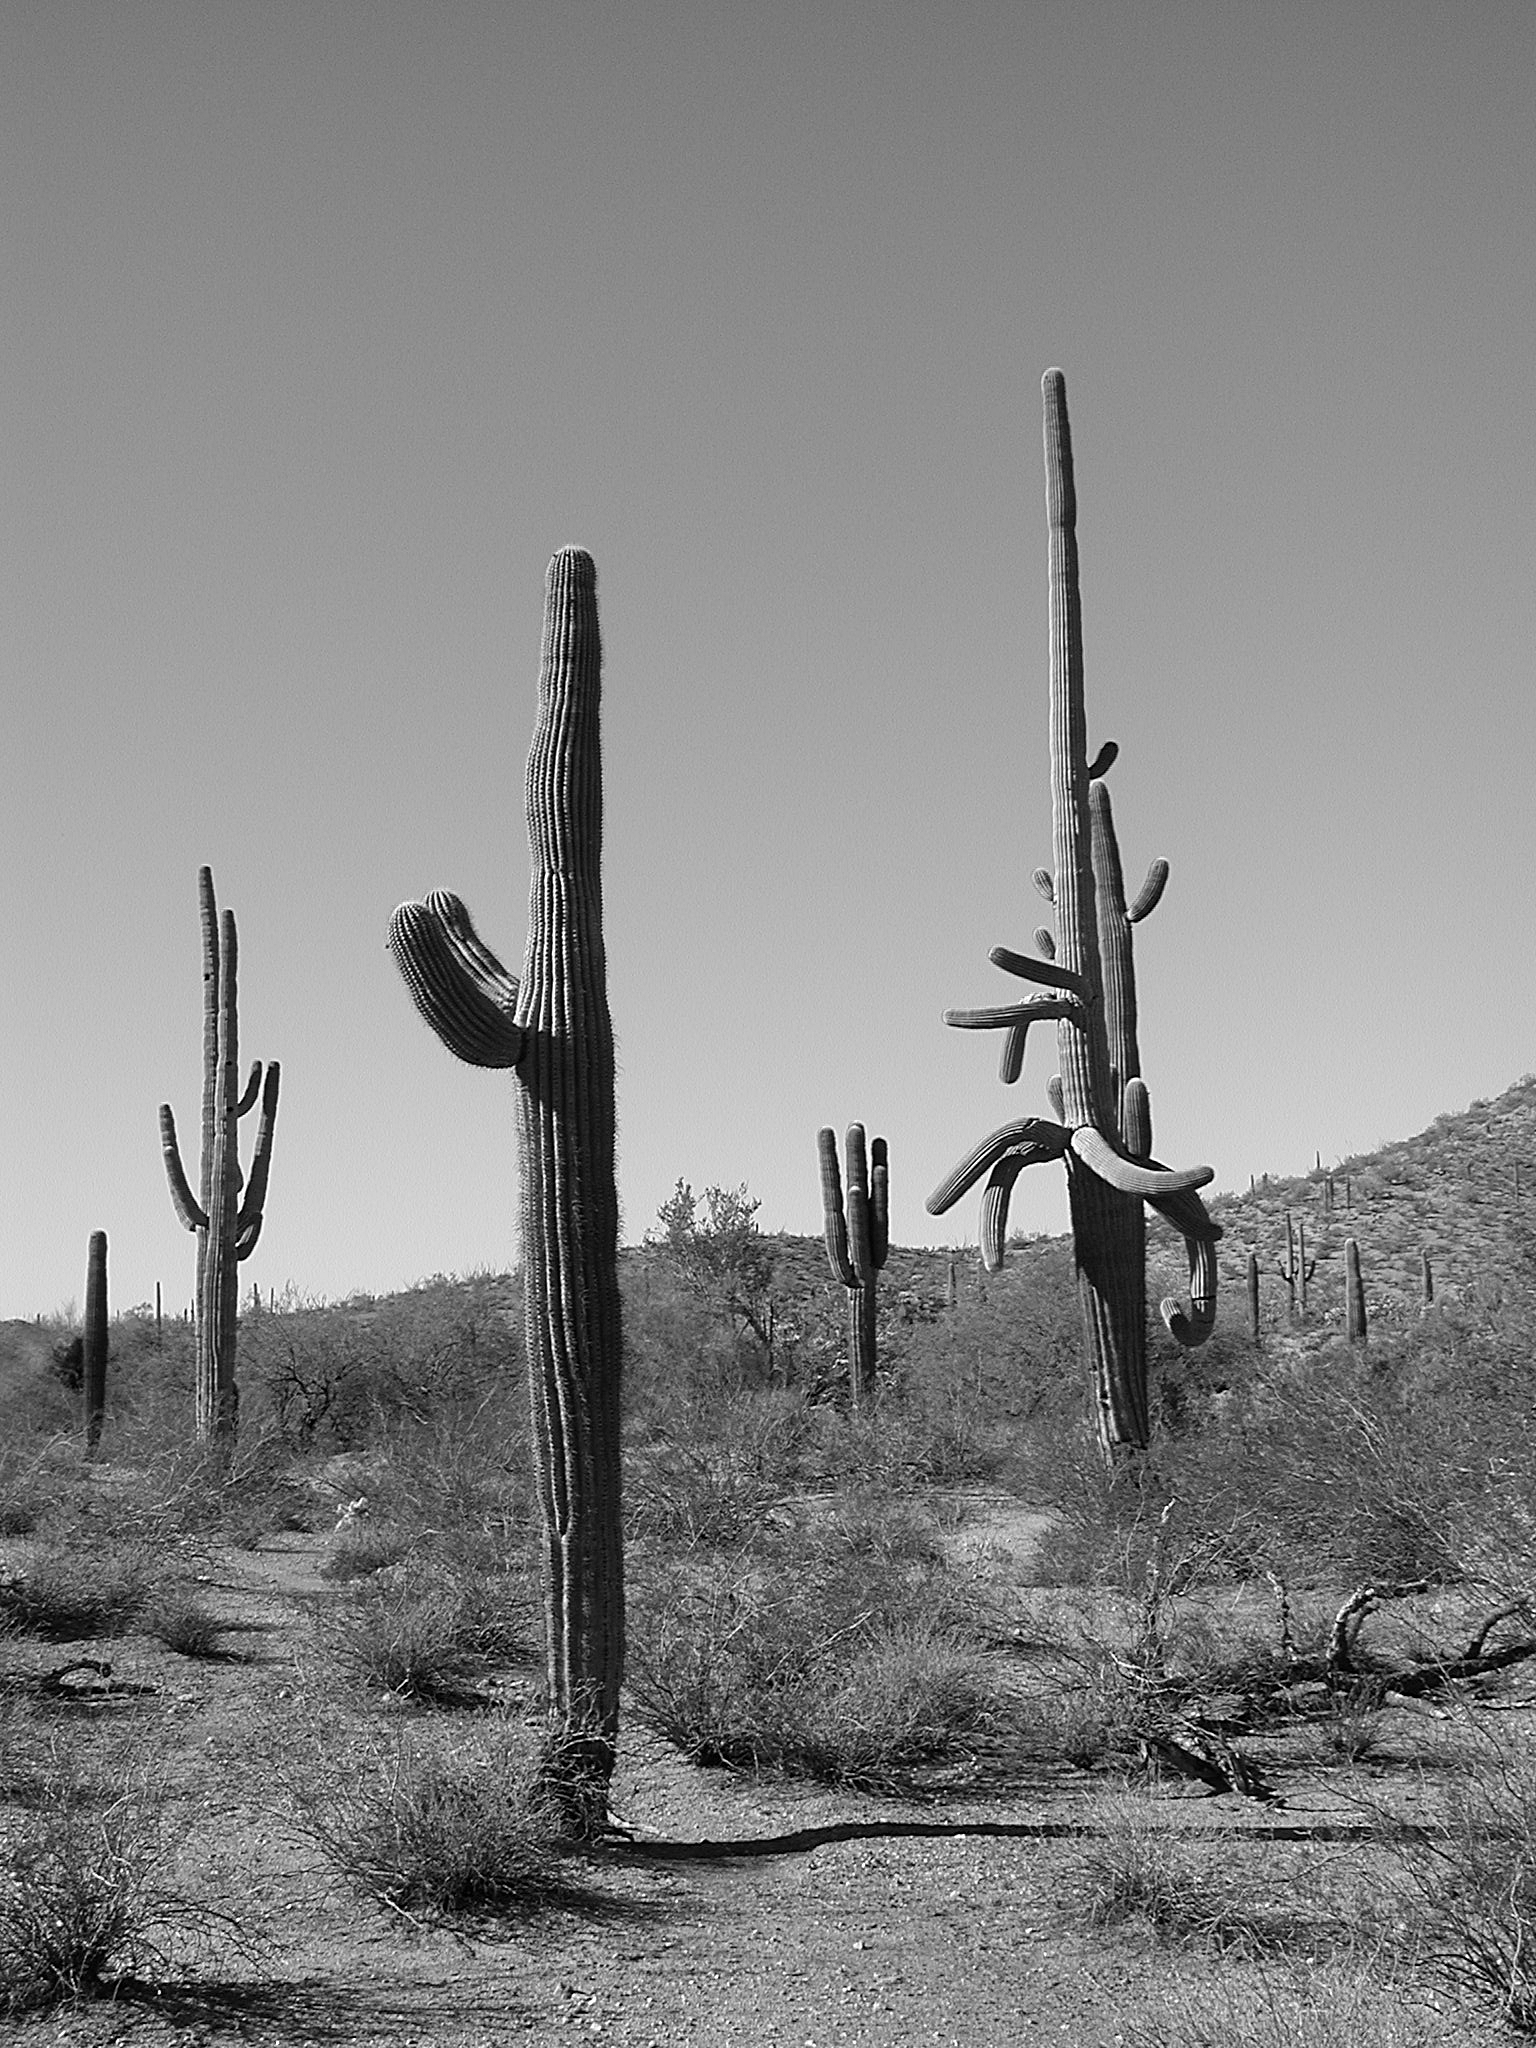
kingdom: Plantae
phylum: Tracheophyta
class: Magnoliopsida
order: Caryophyllales
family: Cactaceae
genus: Carnegiea
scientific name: Carnegiea gigantea
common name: Saguaro
